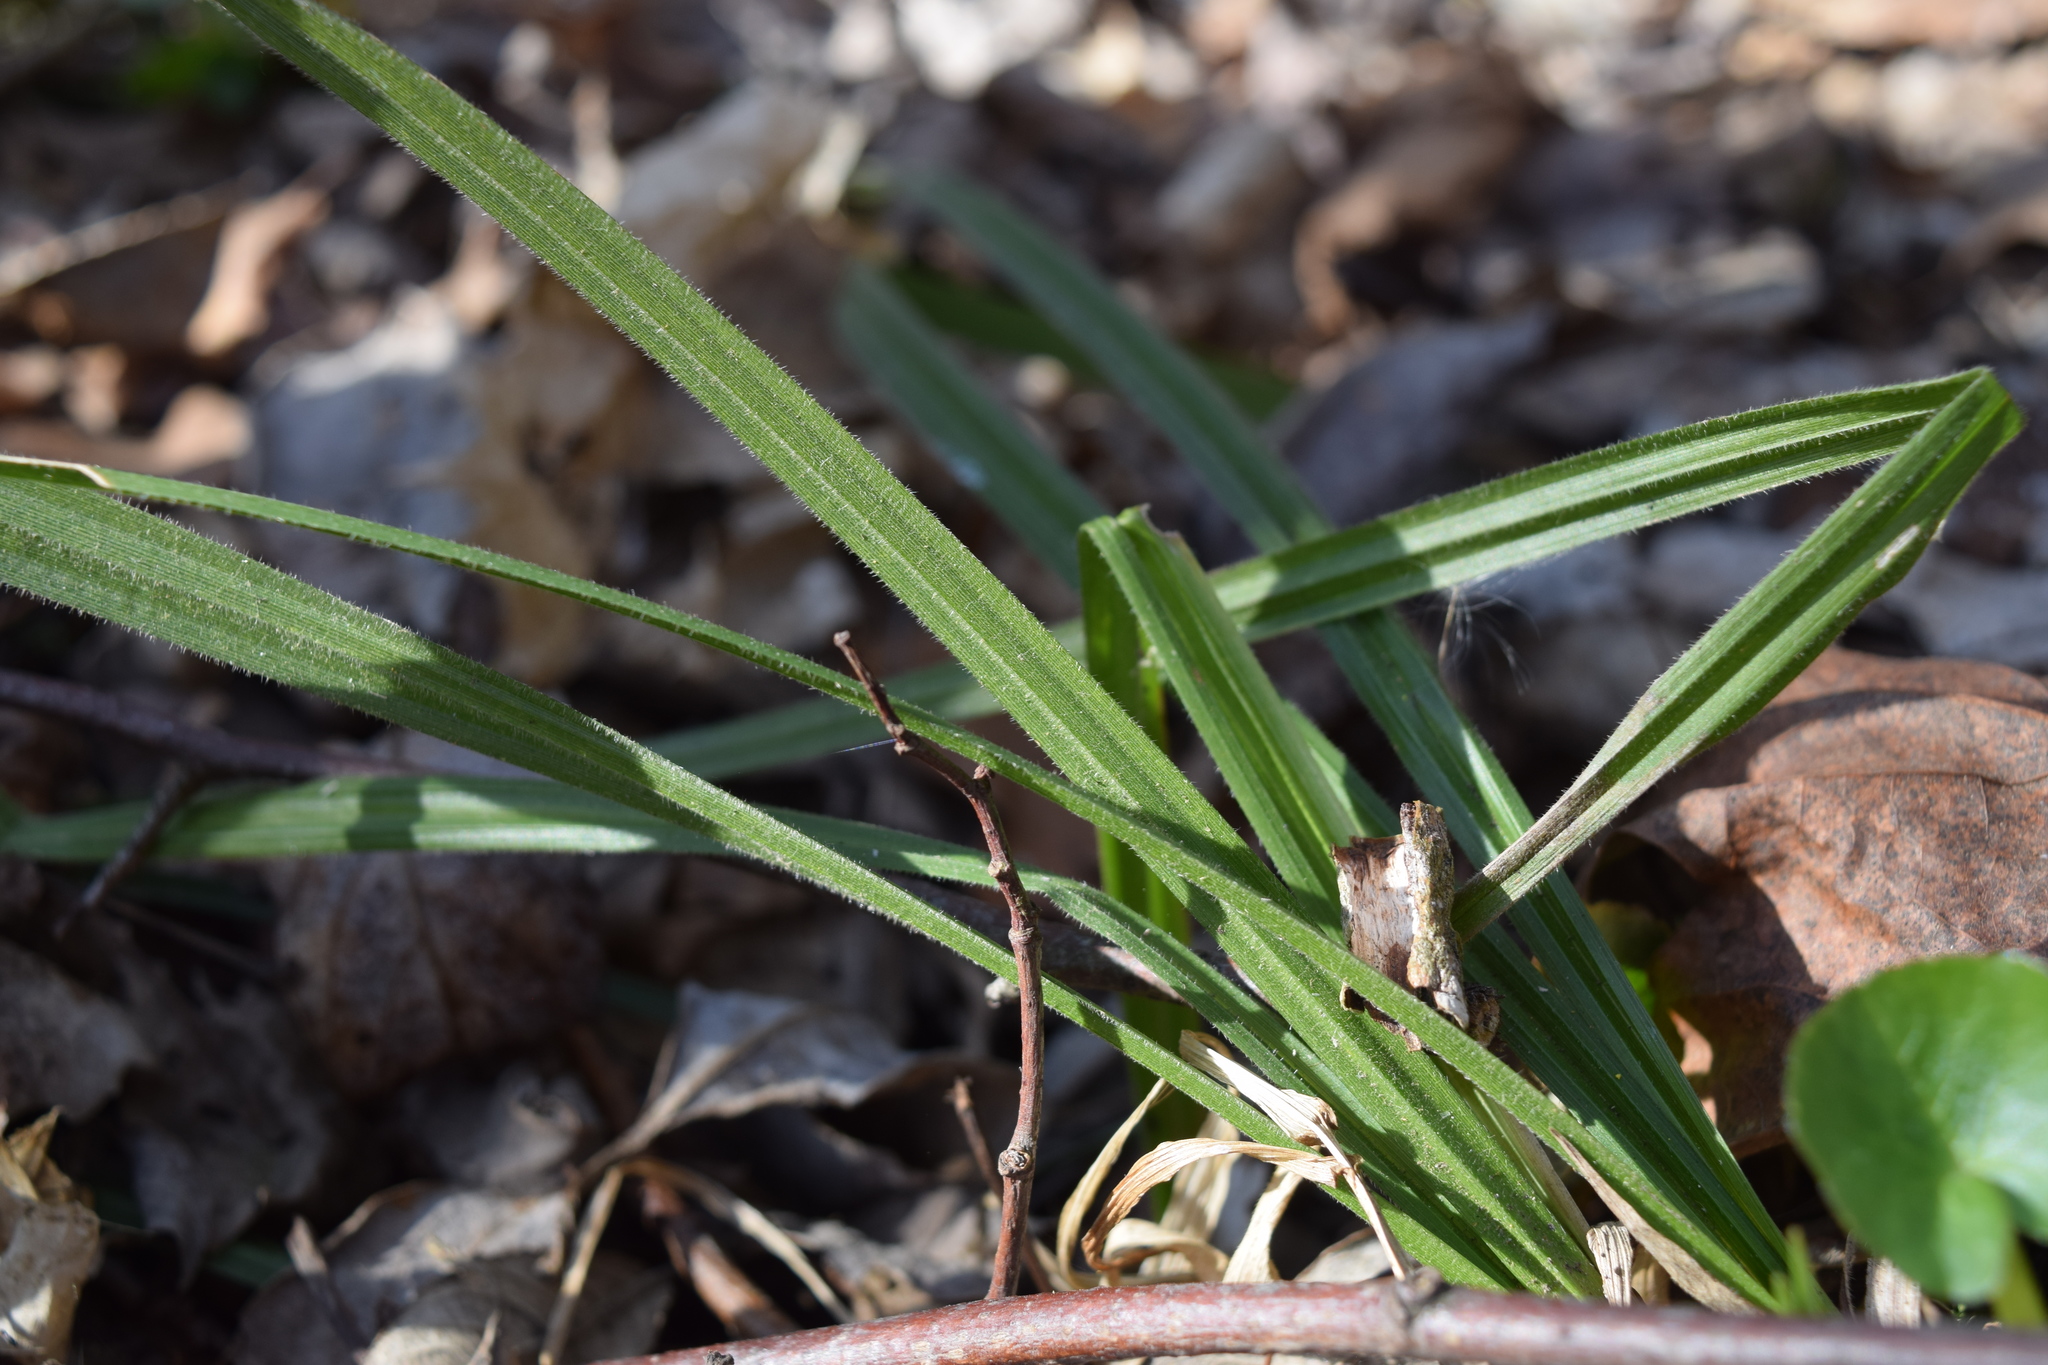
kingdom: Plantae
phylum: Tracheophyta
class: Liliopsida
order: Poales
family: Cyperaceae
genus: Carex
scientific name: Carex pilosa
